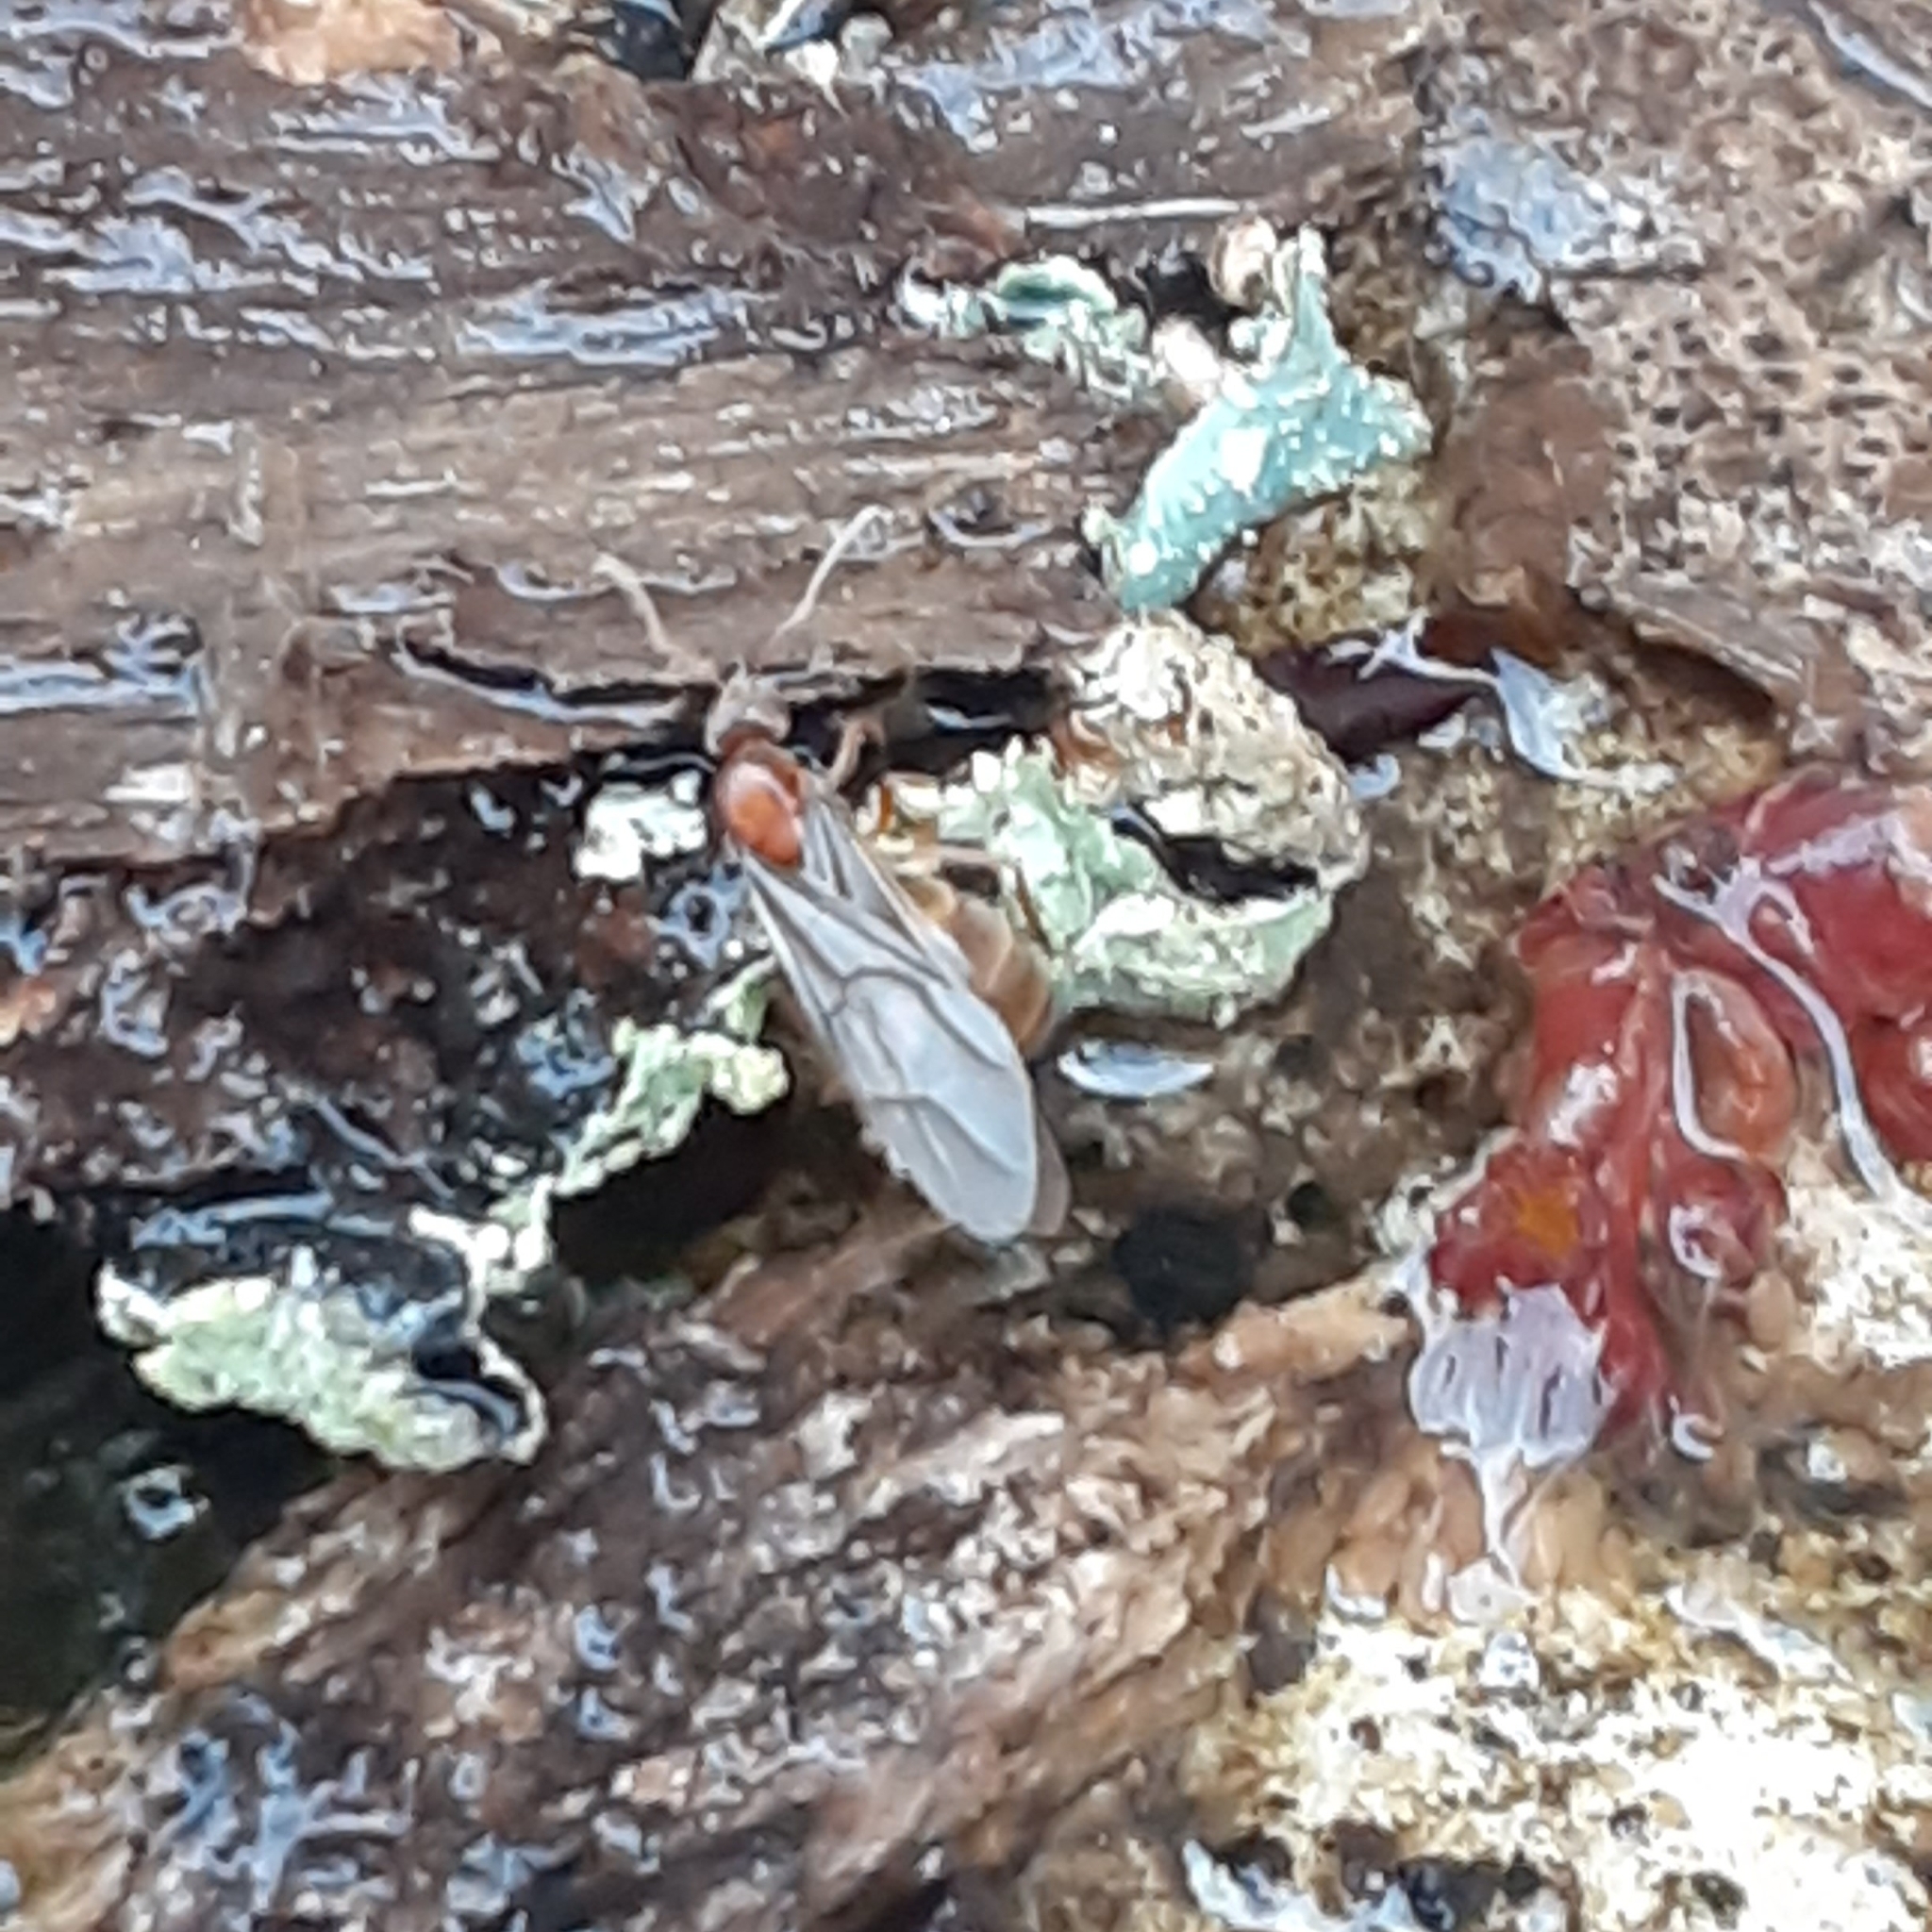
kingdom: Animalia
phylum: Arthropoda
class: Insecta
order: Hymenoptera
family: Formicidae
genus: Prenolepis
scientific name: Prenolepis imparis
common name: Small honey ant
